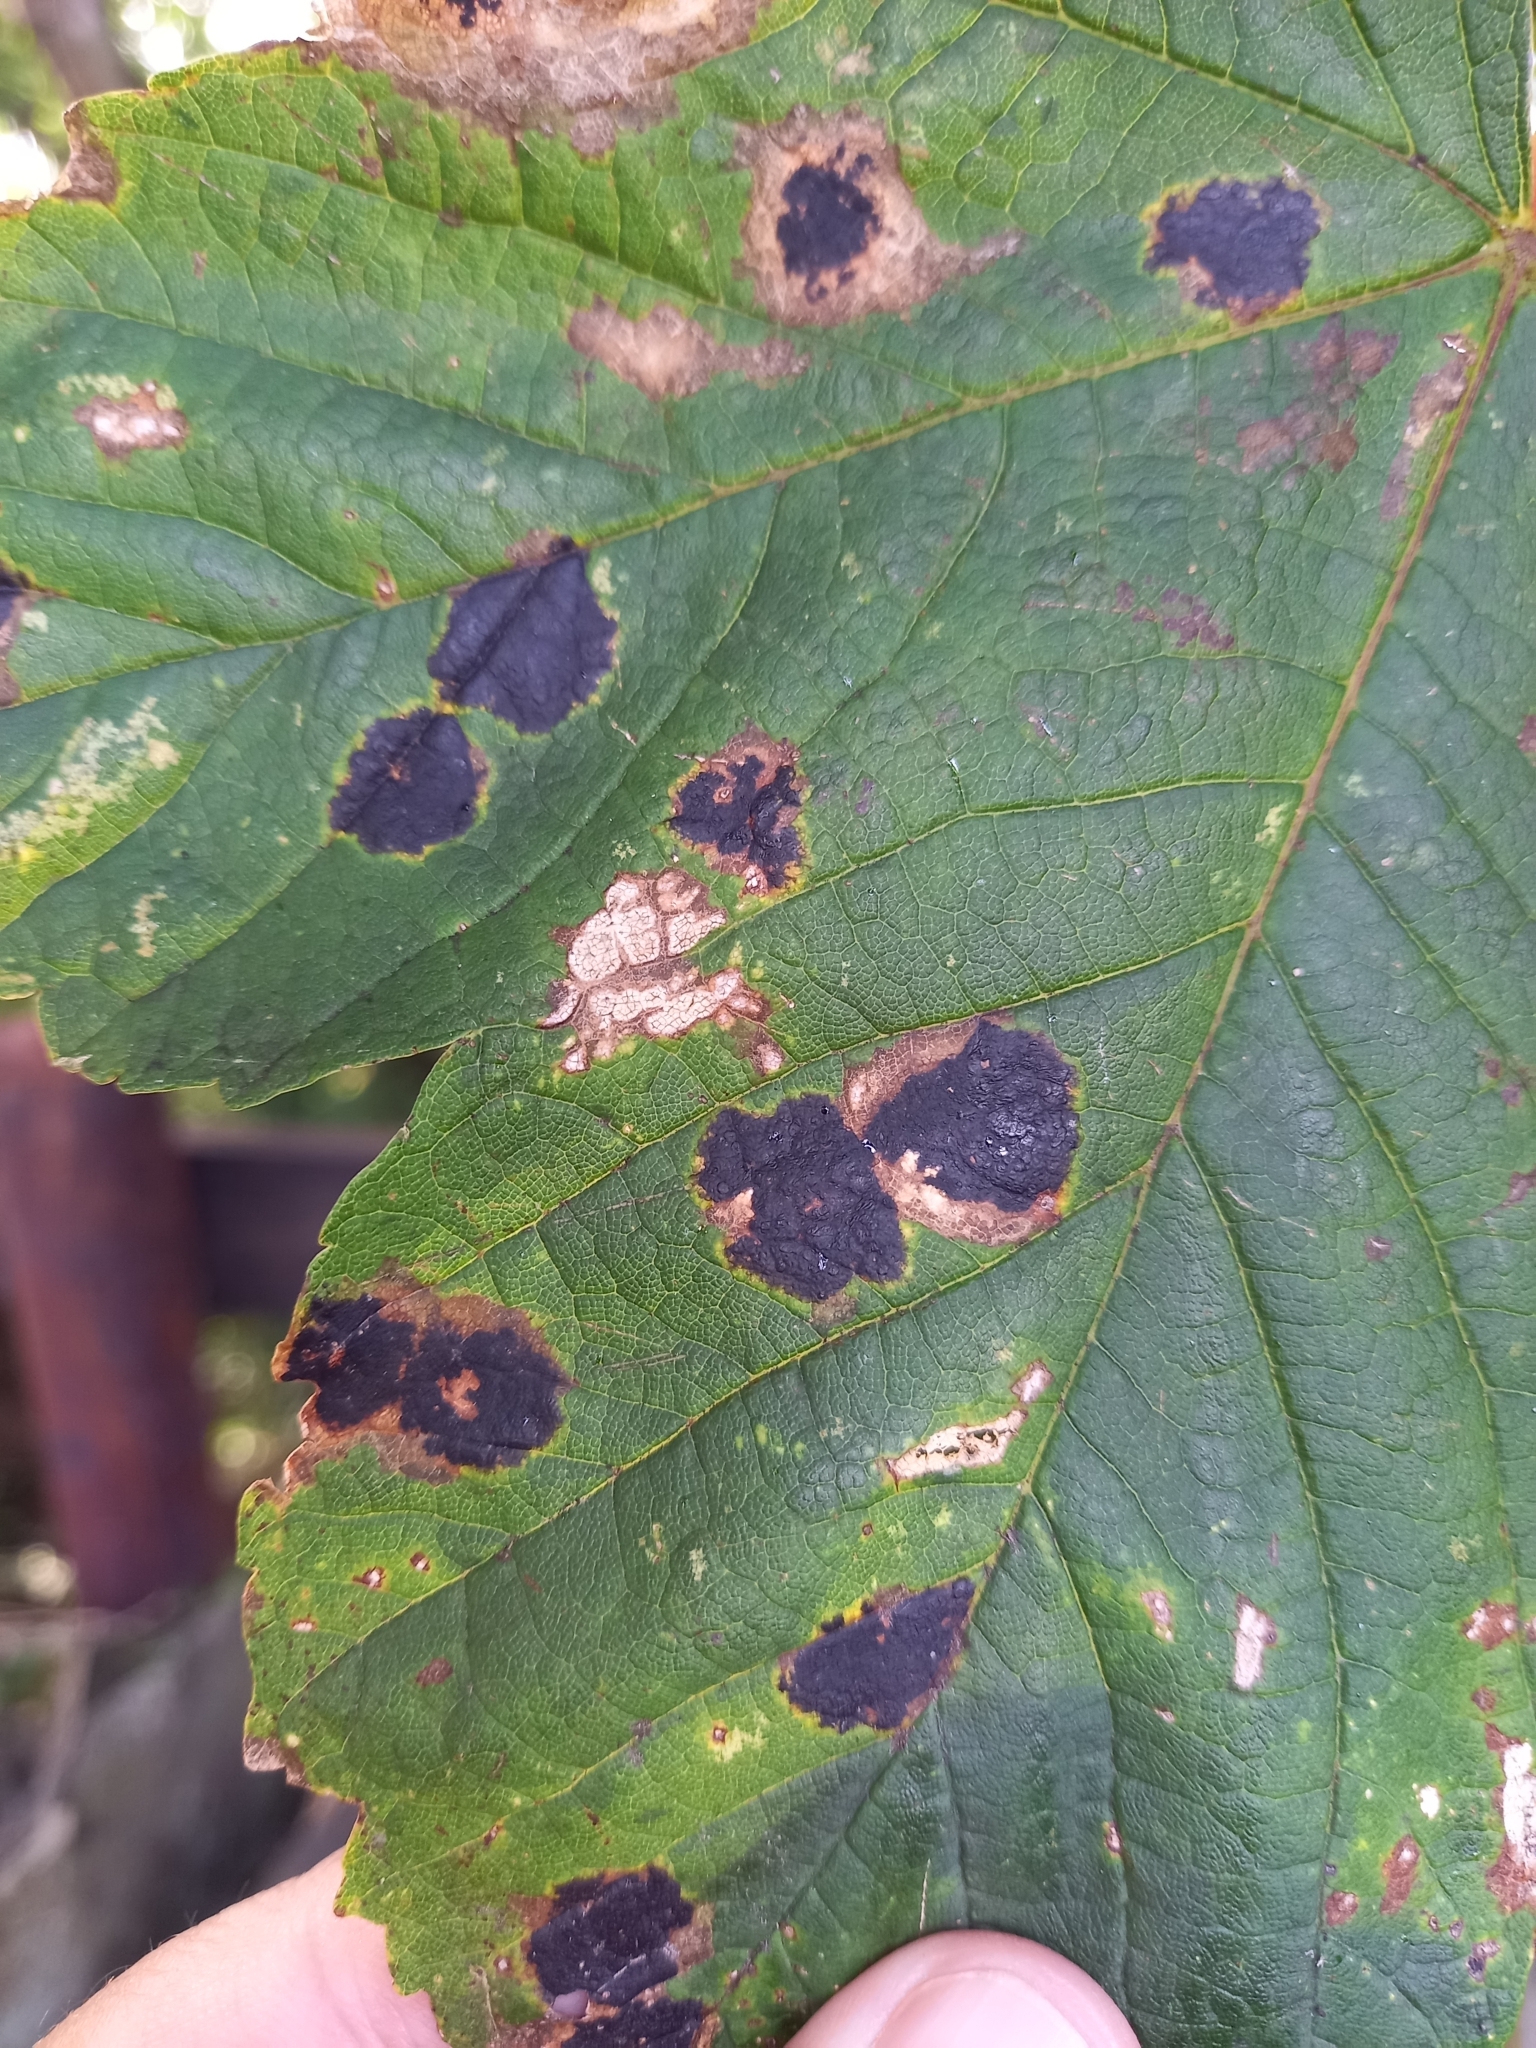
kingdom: Fungi
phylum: Ascomycota
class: Leotiomycetes
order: Rhytismatales
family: Rhytismataceae
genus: Rhytisma
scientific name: Rhytisma acerinum
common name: European tar spot
